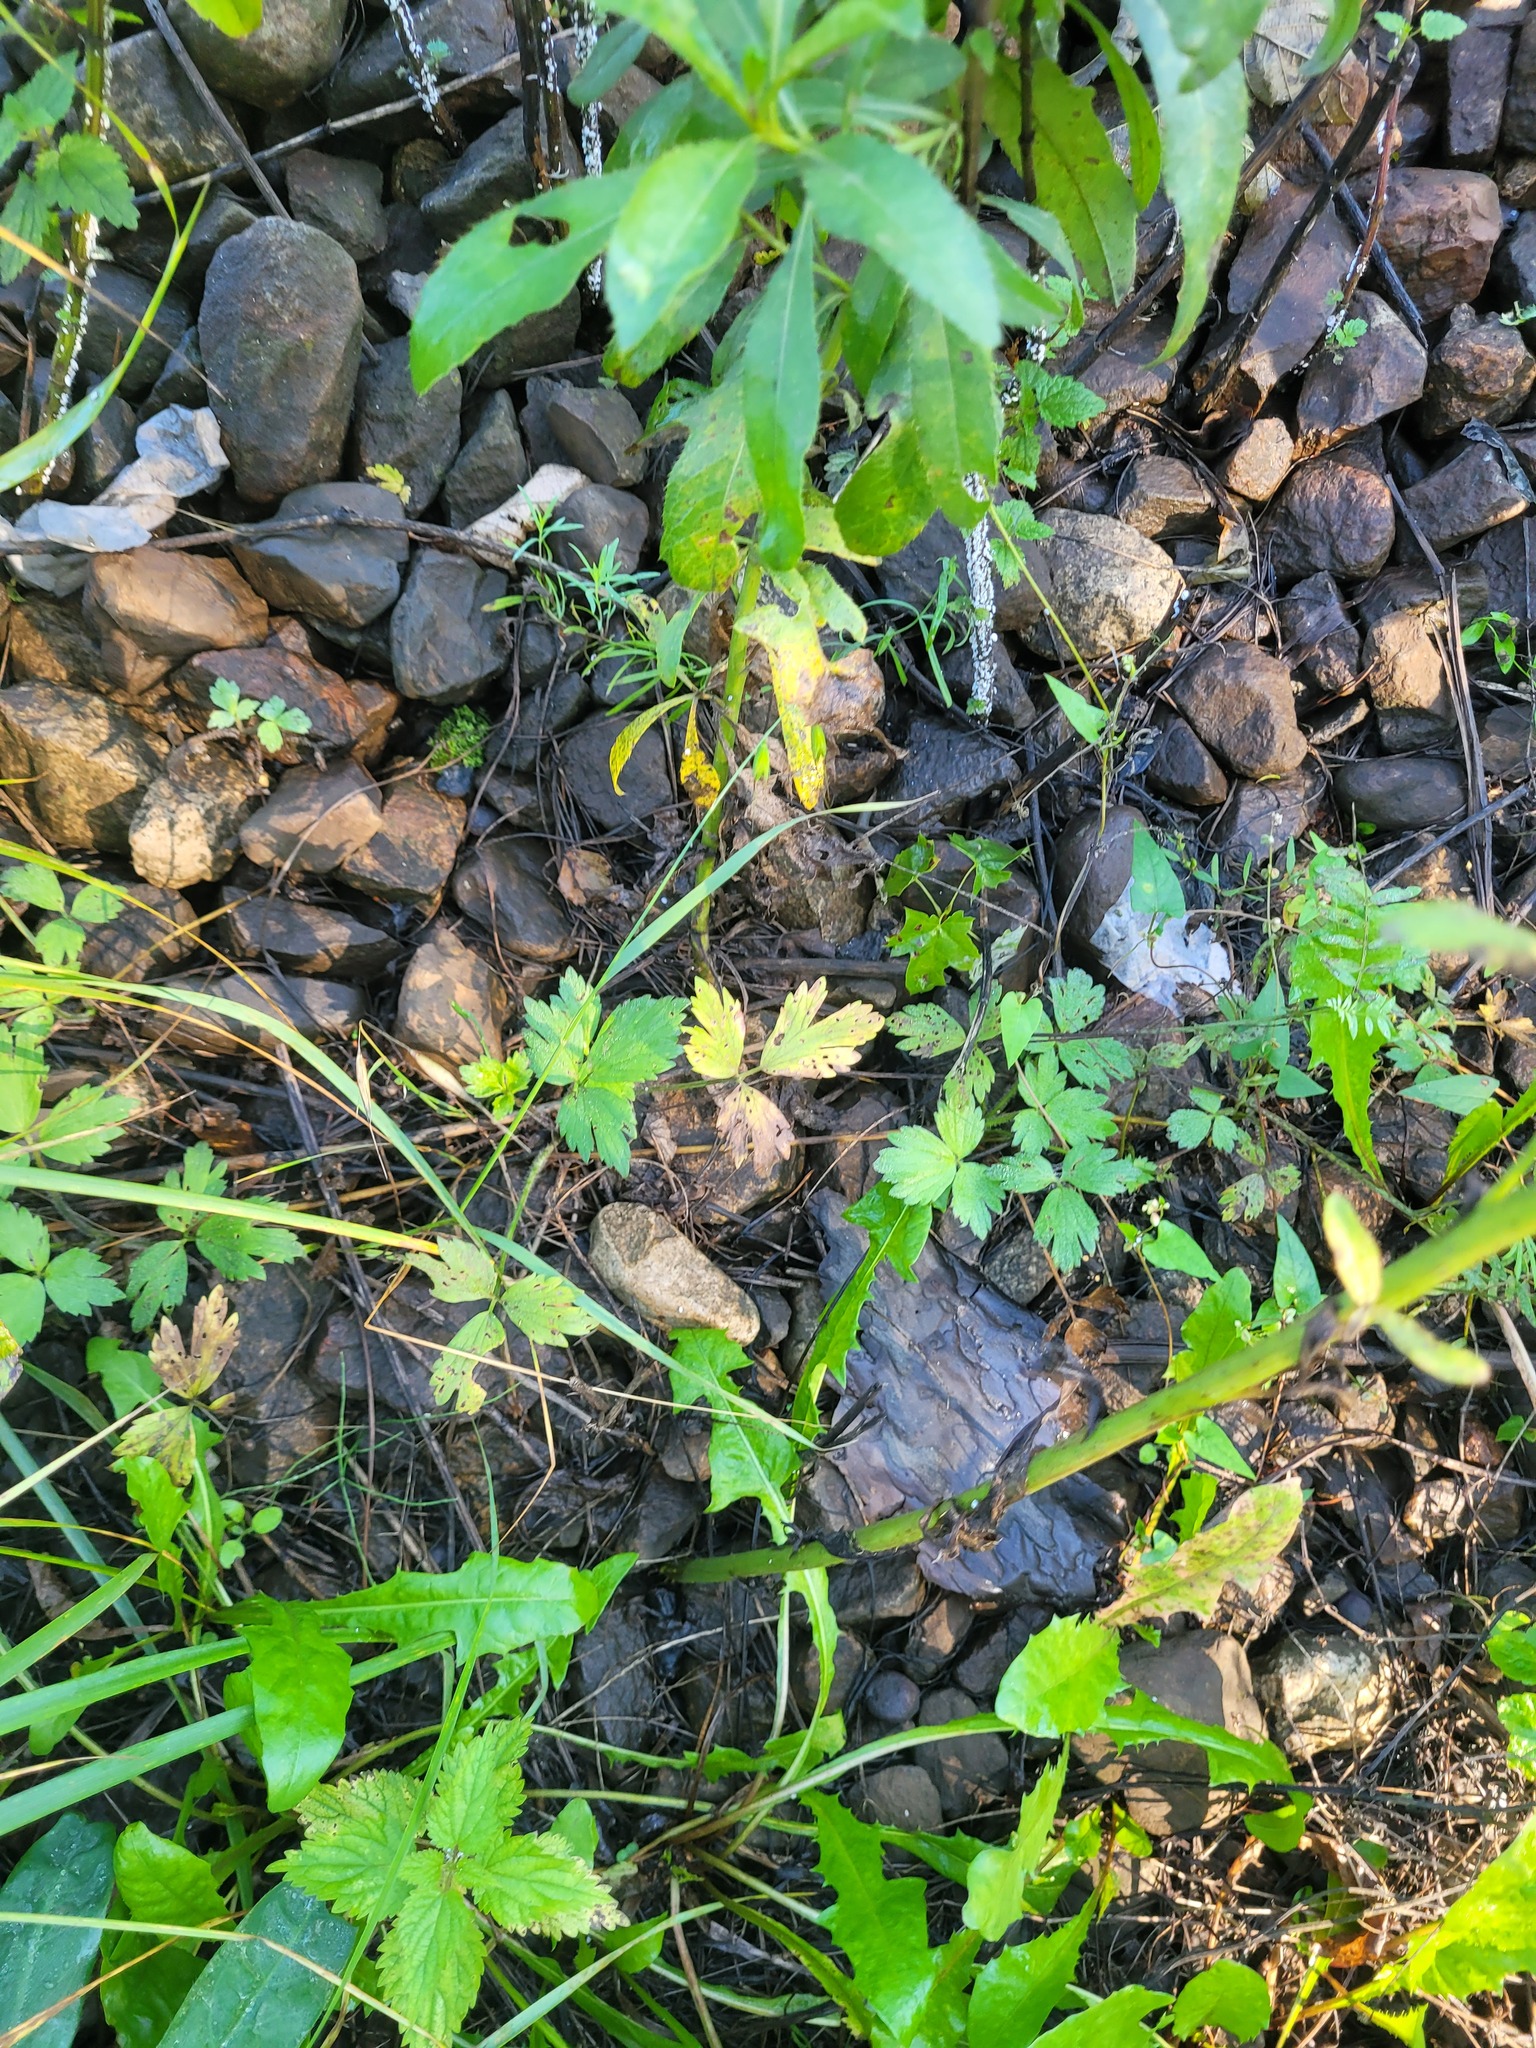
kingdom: Plantae
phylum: Tracheophyta
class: Magnoliopsida
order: Ranunculales
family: Ranunculaceae
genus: Ranunculus
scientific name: Ranunculus repens
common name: Creeping buttercup
